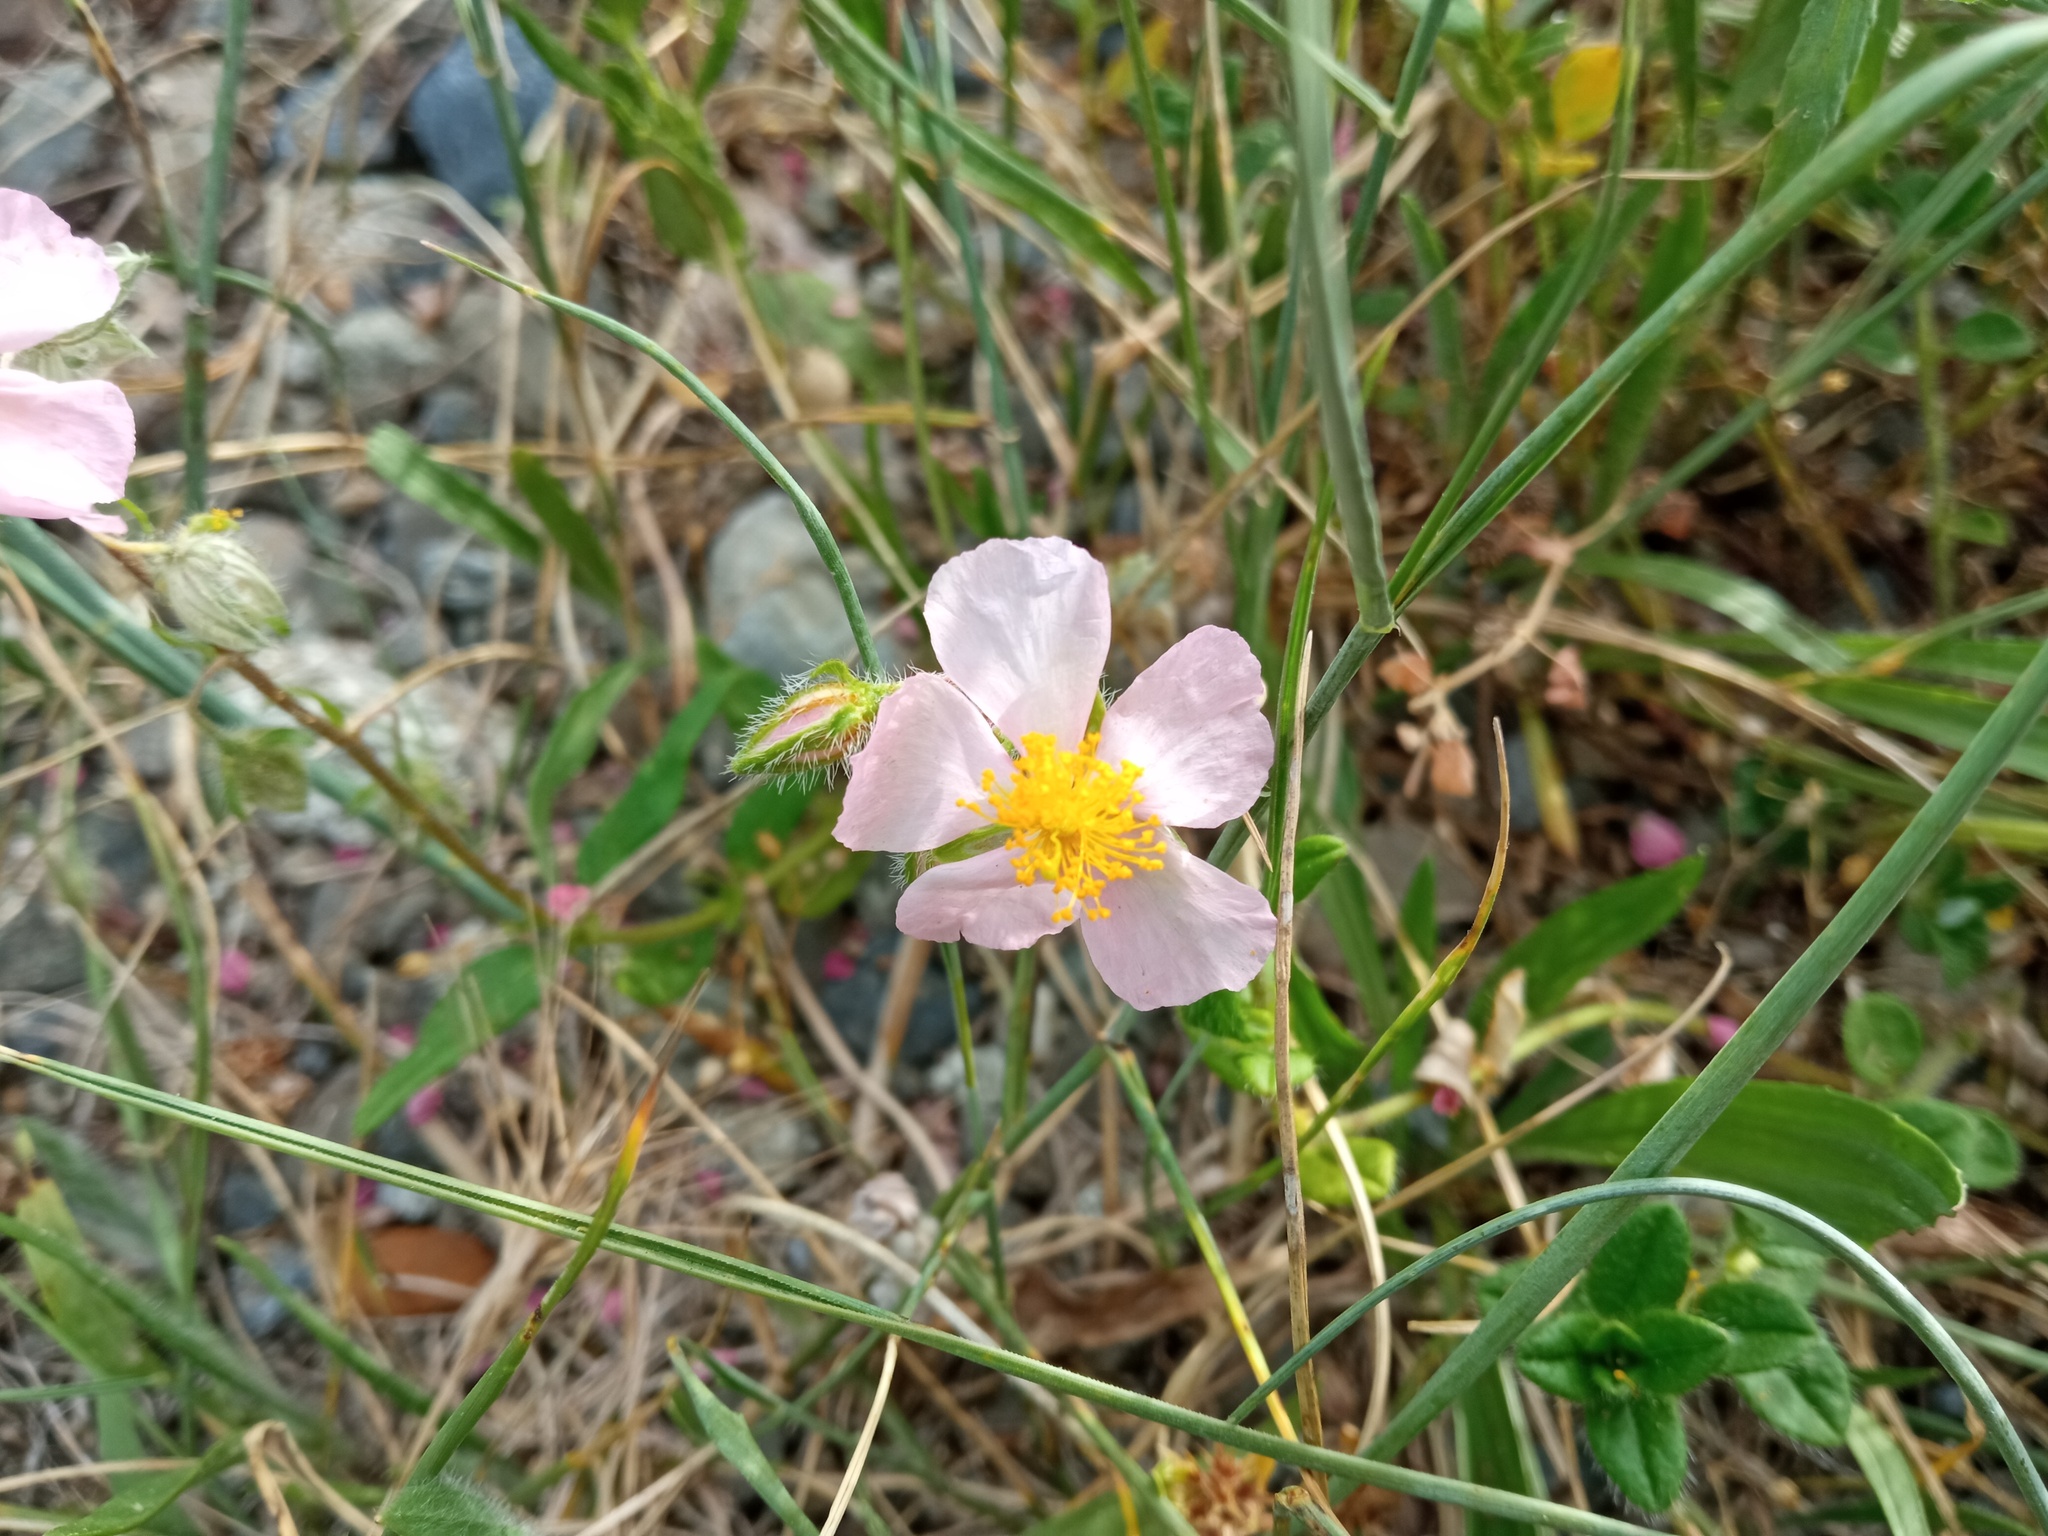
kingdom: Plantae
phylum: Tracheophyta
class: Magnoliopsida
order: Malvales
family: Cistaceae
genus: Helianthemum
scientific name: Helianthemum nummularium
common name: Common rock-rose
